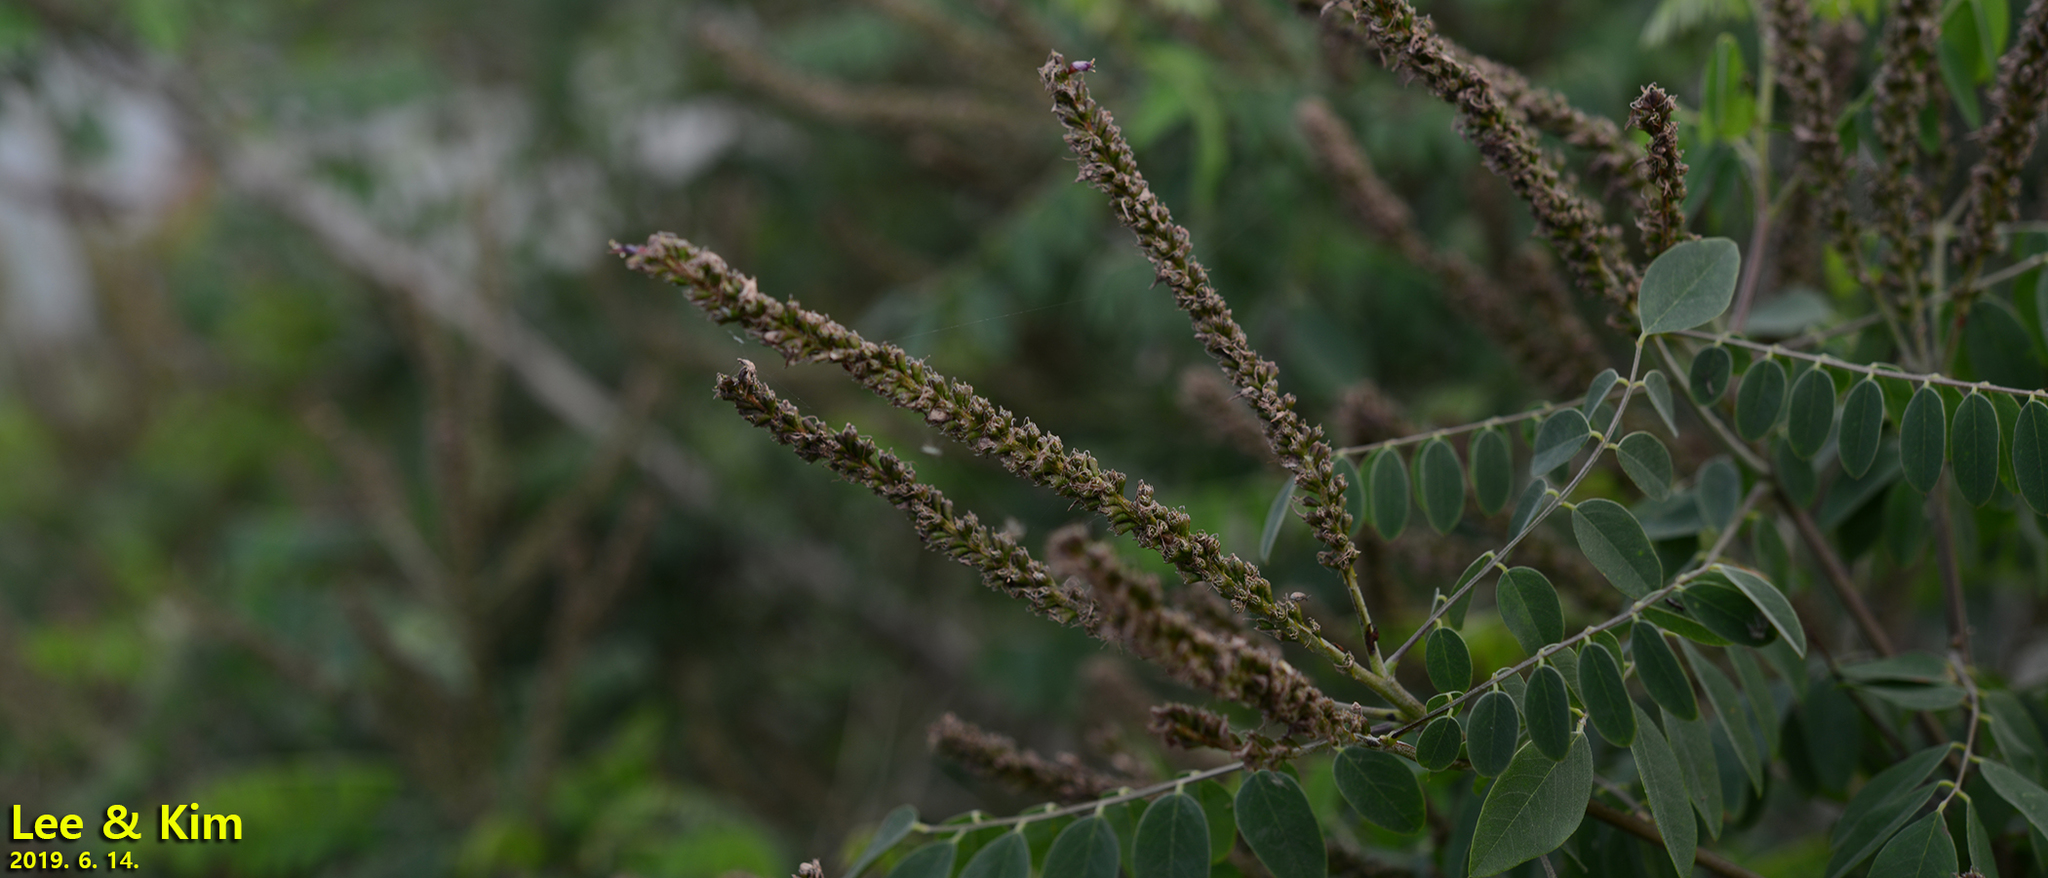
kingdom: Plantae
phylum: Tracheophyta
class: Magnoliopsida
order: Fabales
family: Fabaceae
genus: Amorpha
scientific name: Amorpha fruticosa
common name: False indigo
